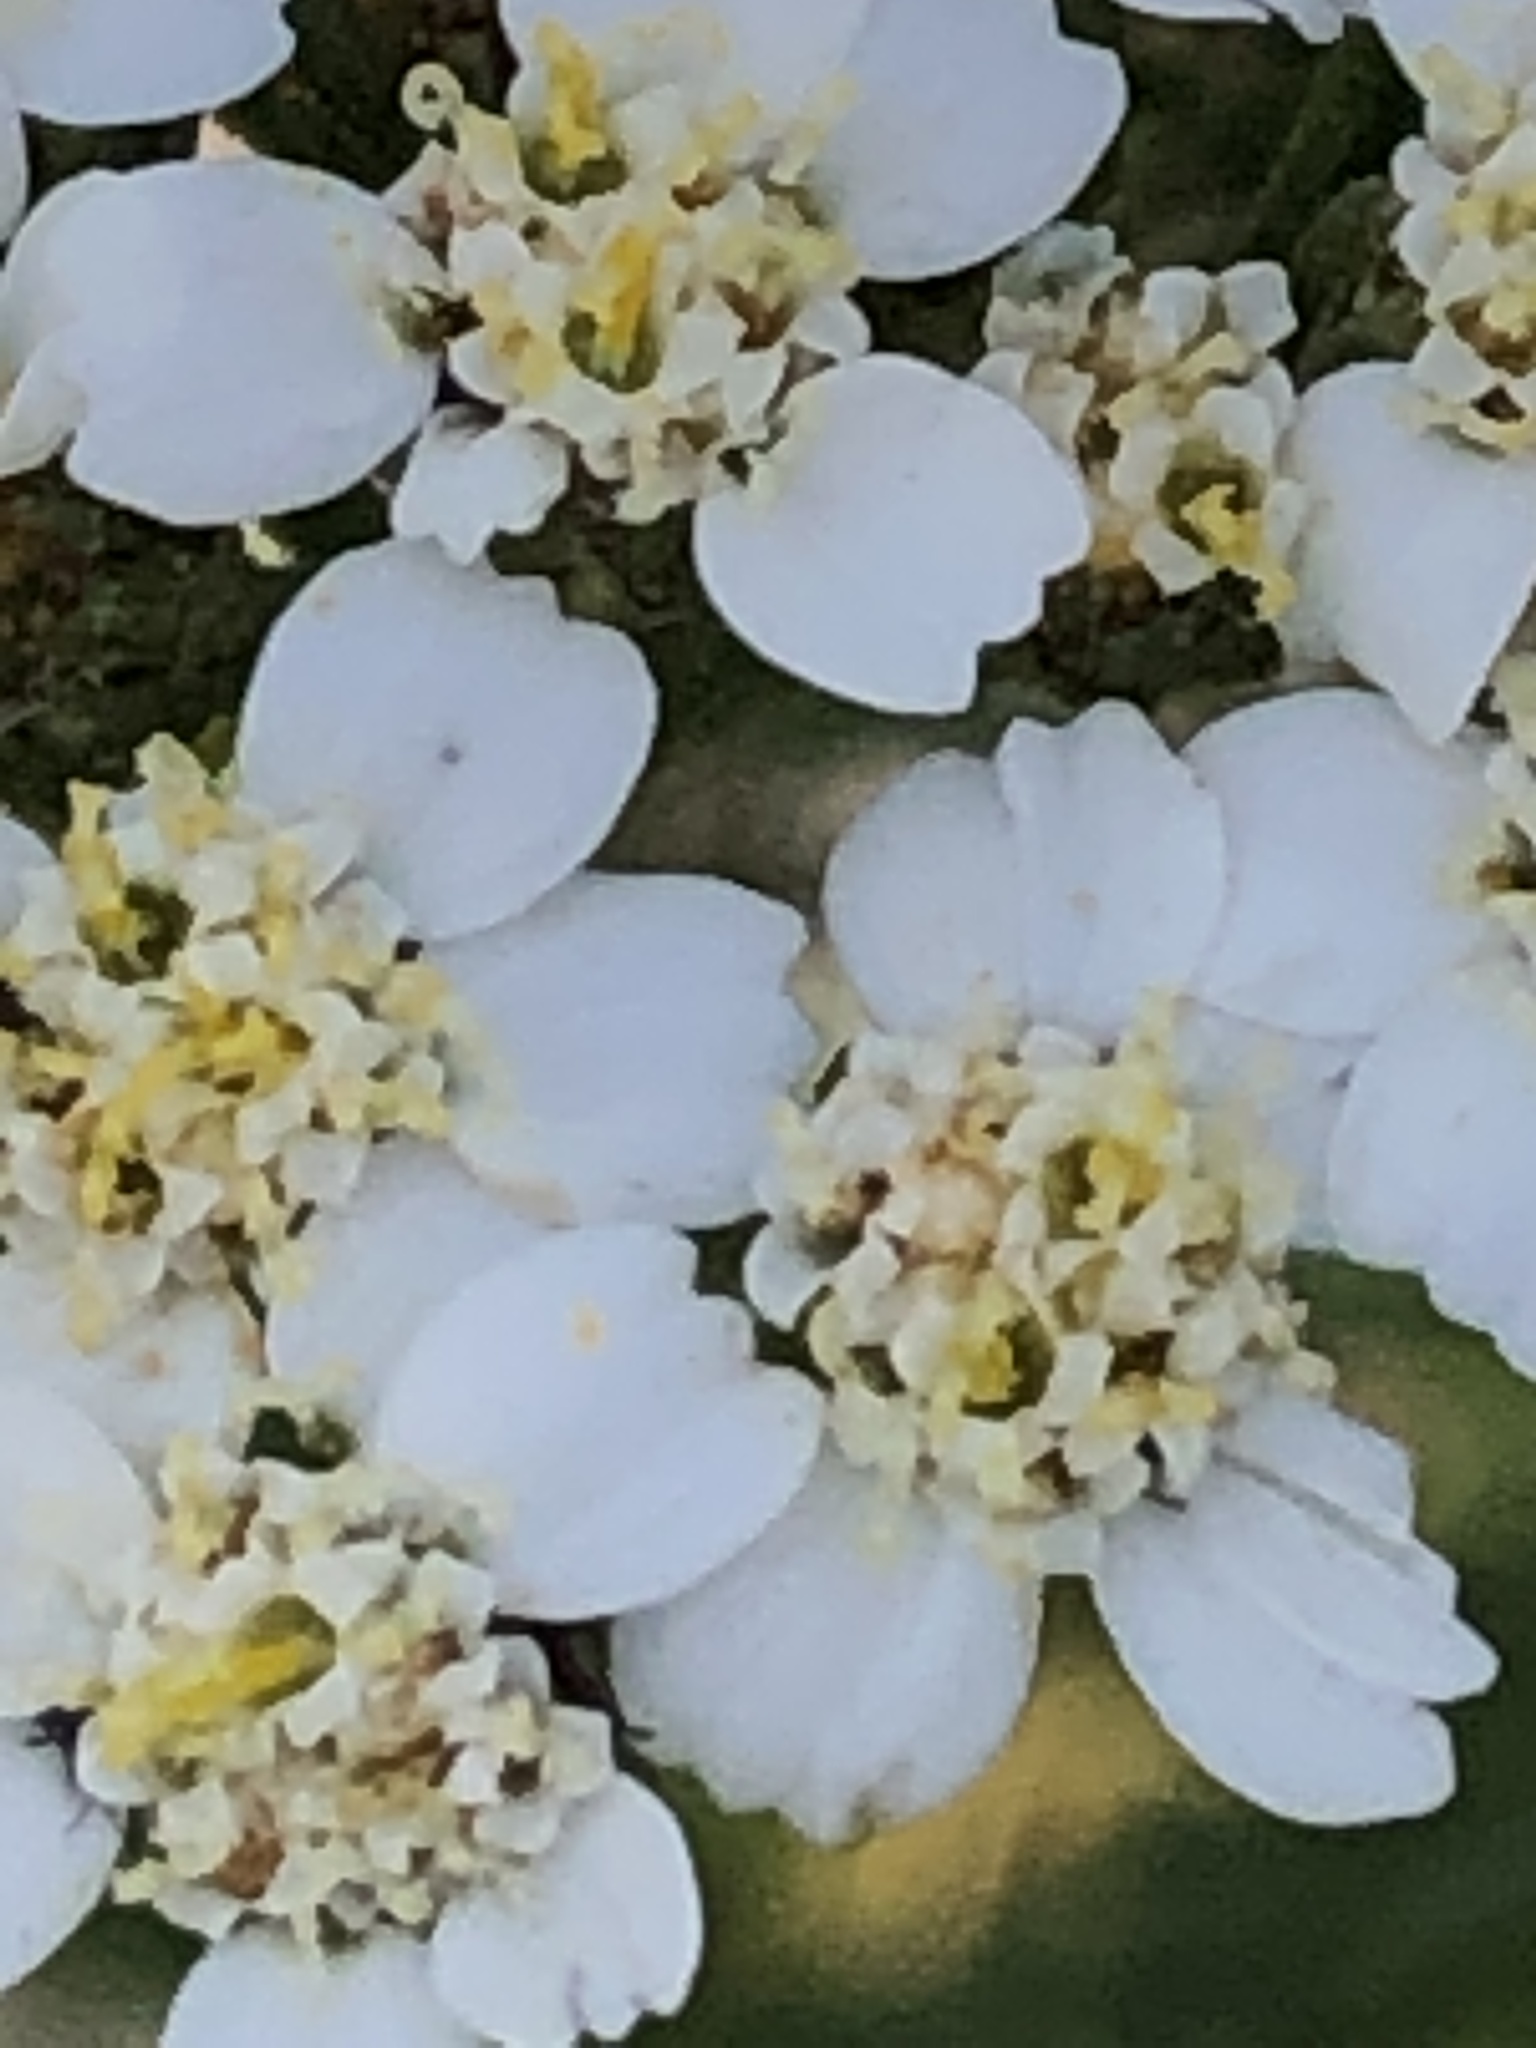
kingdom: Plantae
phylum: Tracheophyta
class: Magnoliopsida
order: Asterales
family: Asteraceae
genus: Achillea
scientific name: Achillea millefolium
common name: Yarrow
